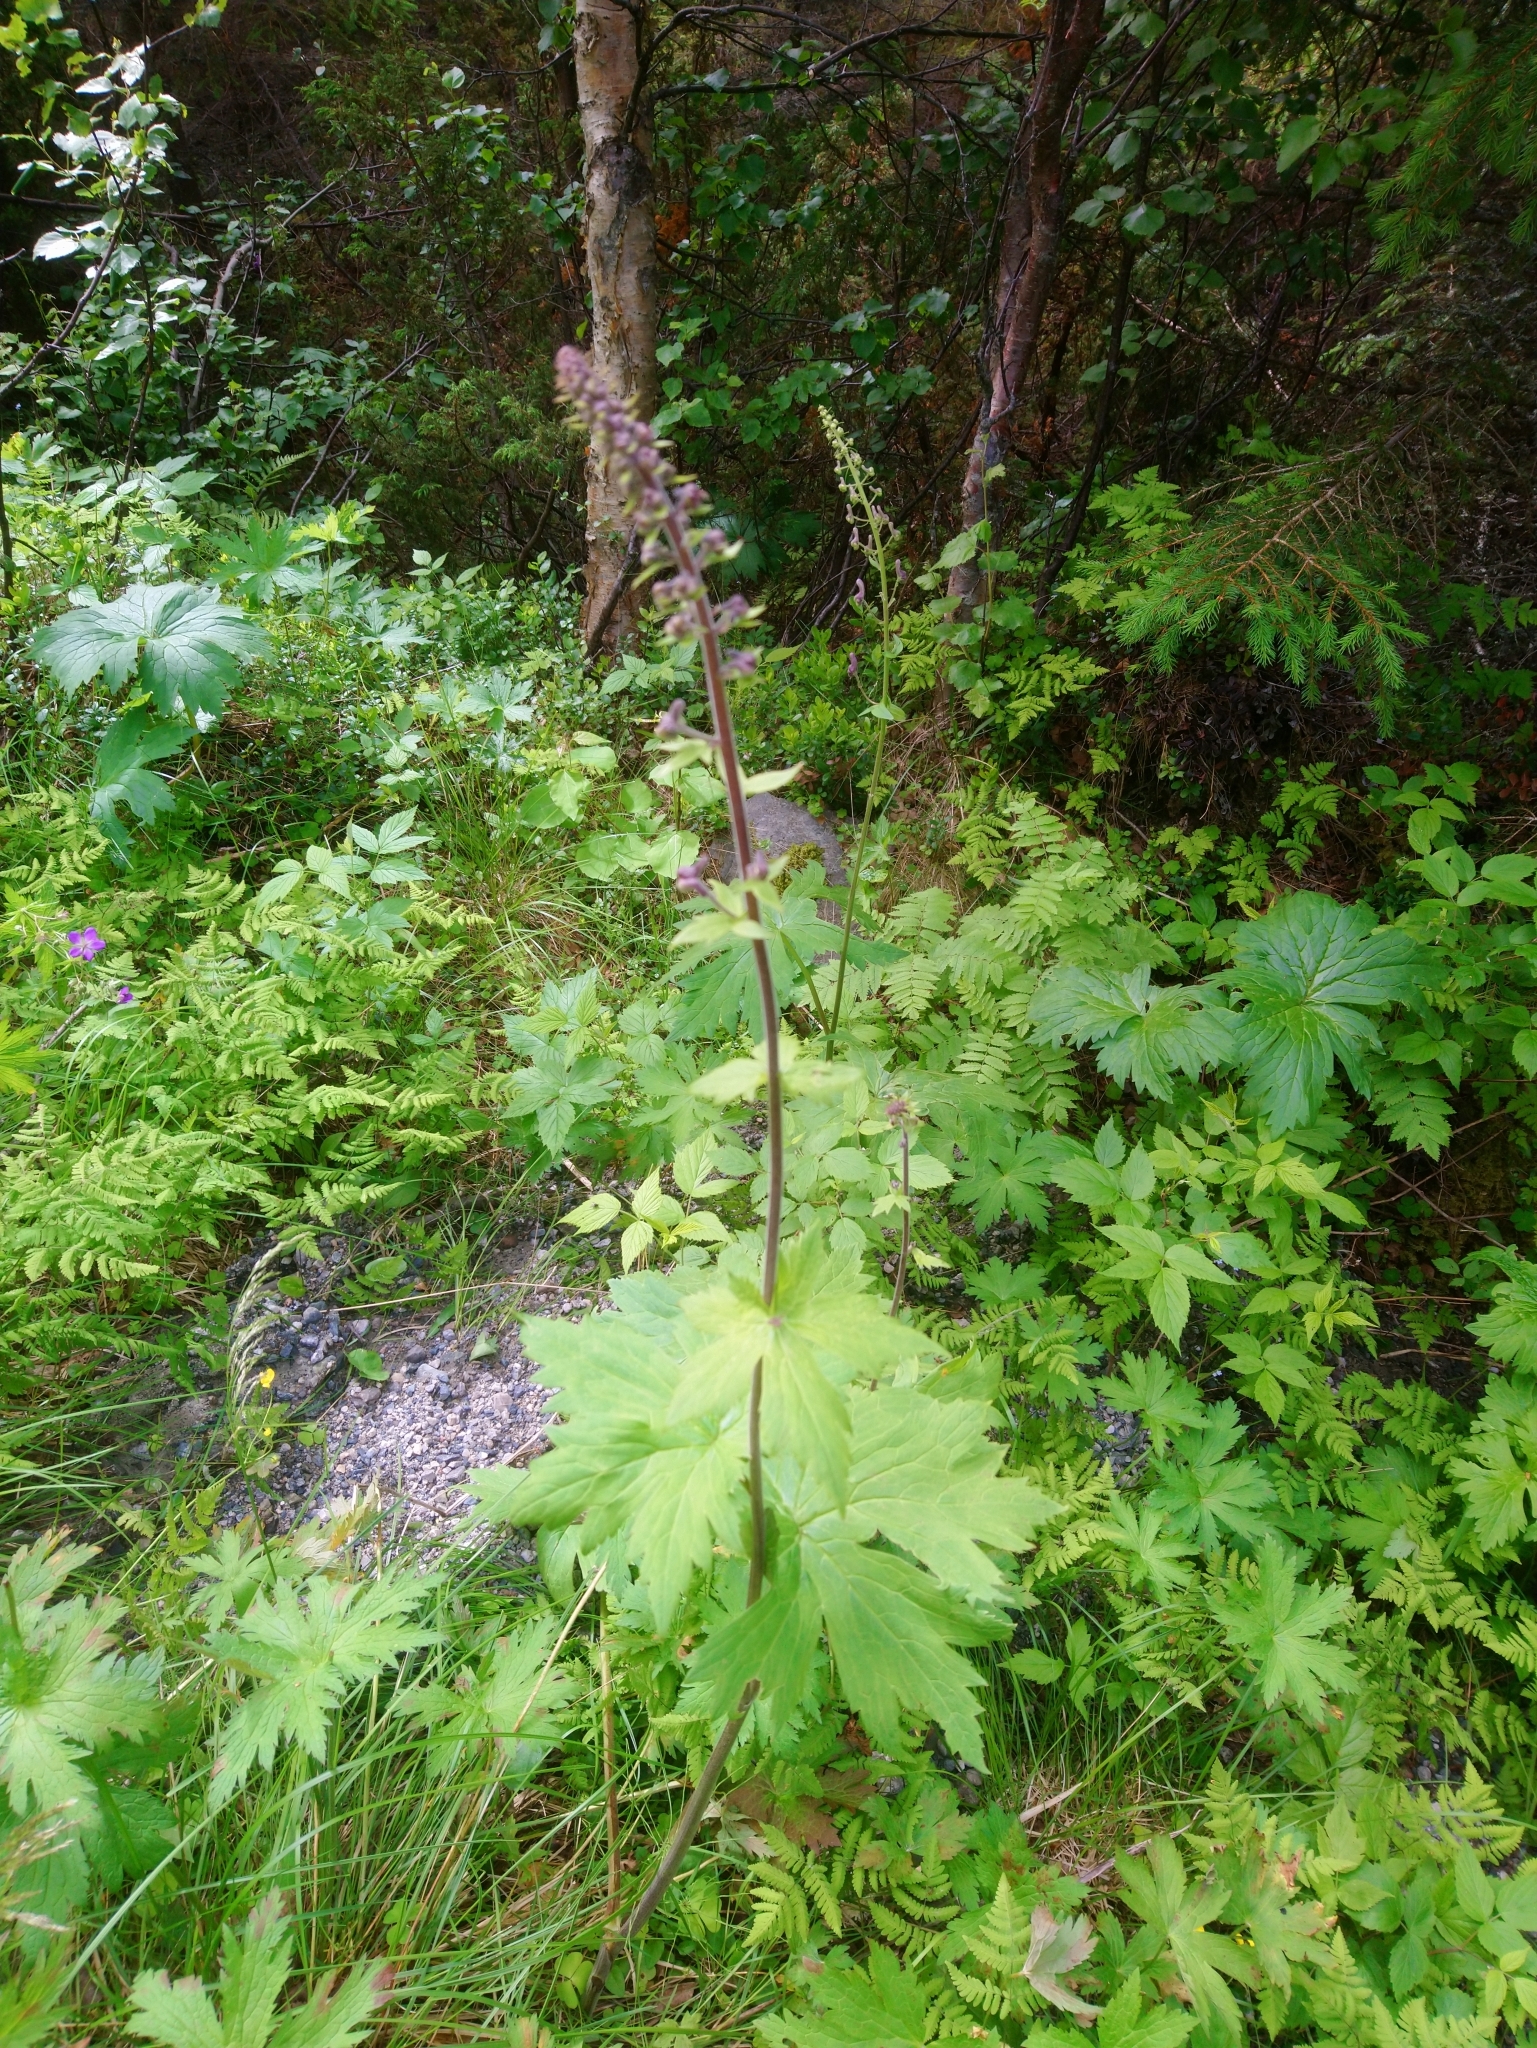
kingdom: Plantae
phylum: Tracheophyta
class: Magnoliopsida
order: Ranunculales
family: Ranunculaceae
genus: Aconitum
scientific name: Aconitum septentrionale
